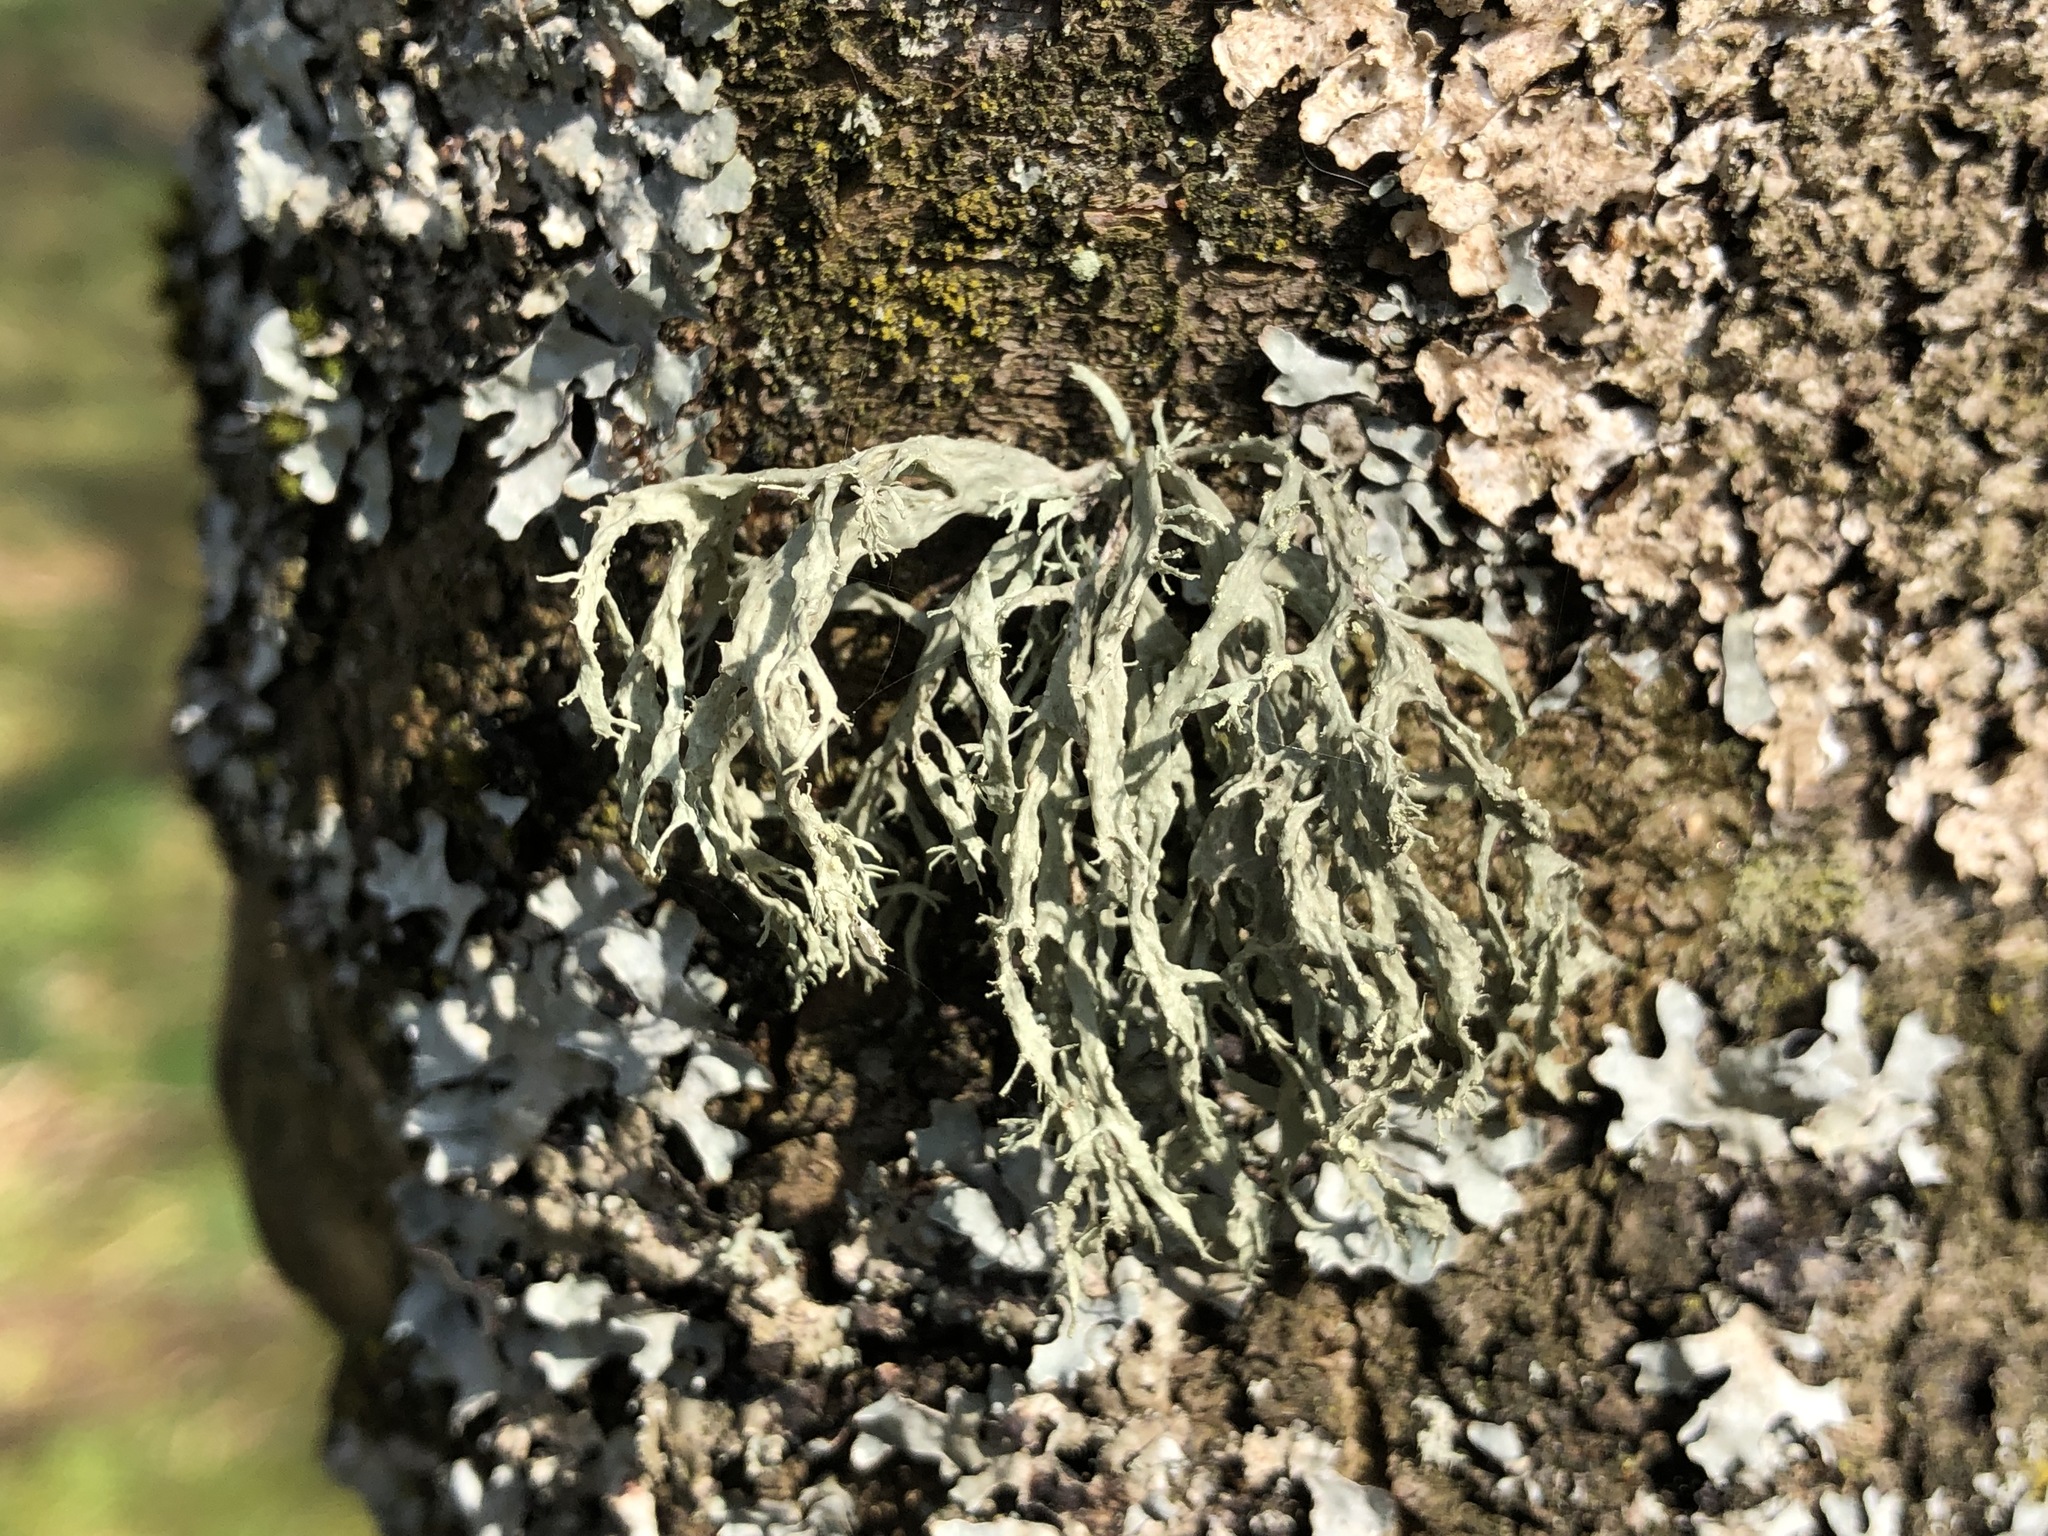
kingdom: Fungi
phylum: Ascomycota
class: Lecanoromycetes
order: Lecanorales
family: Ramalinaceae
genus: Ramalina
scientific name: Ramalina fraxinea
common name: Cartilage lichen
